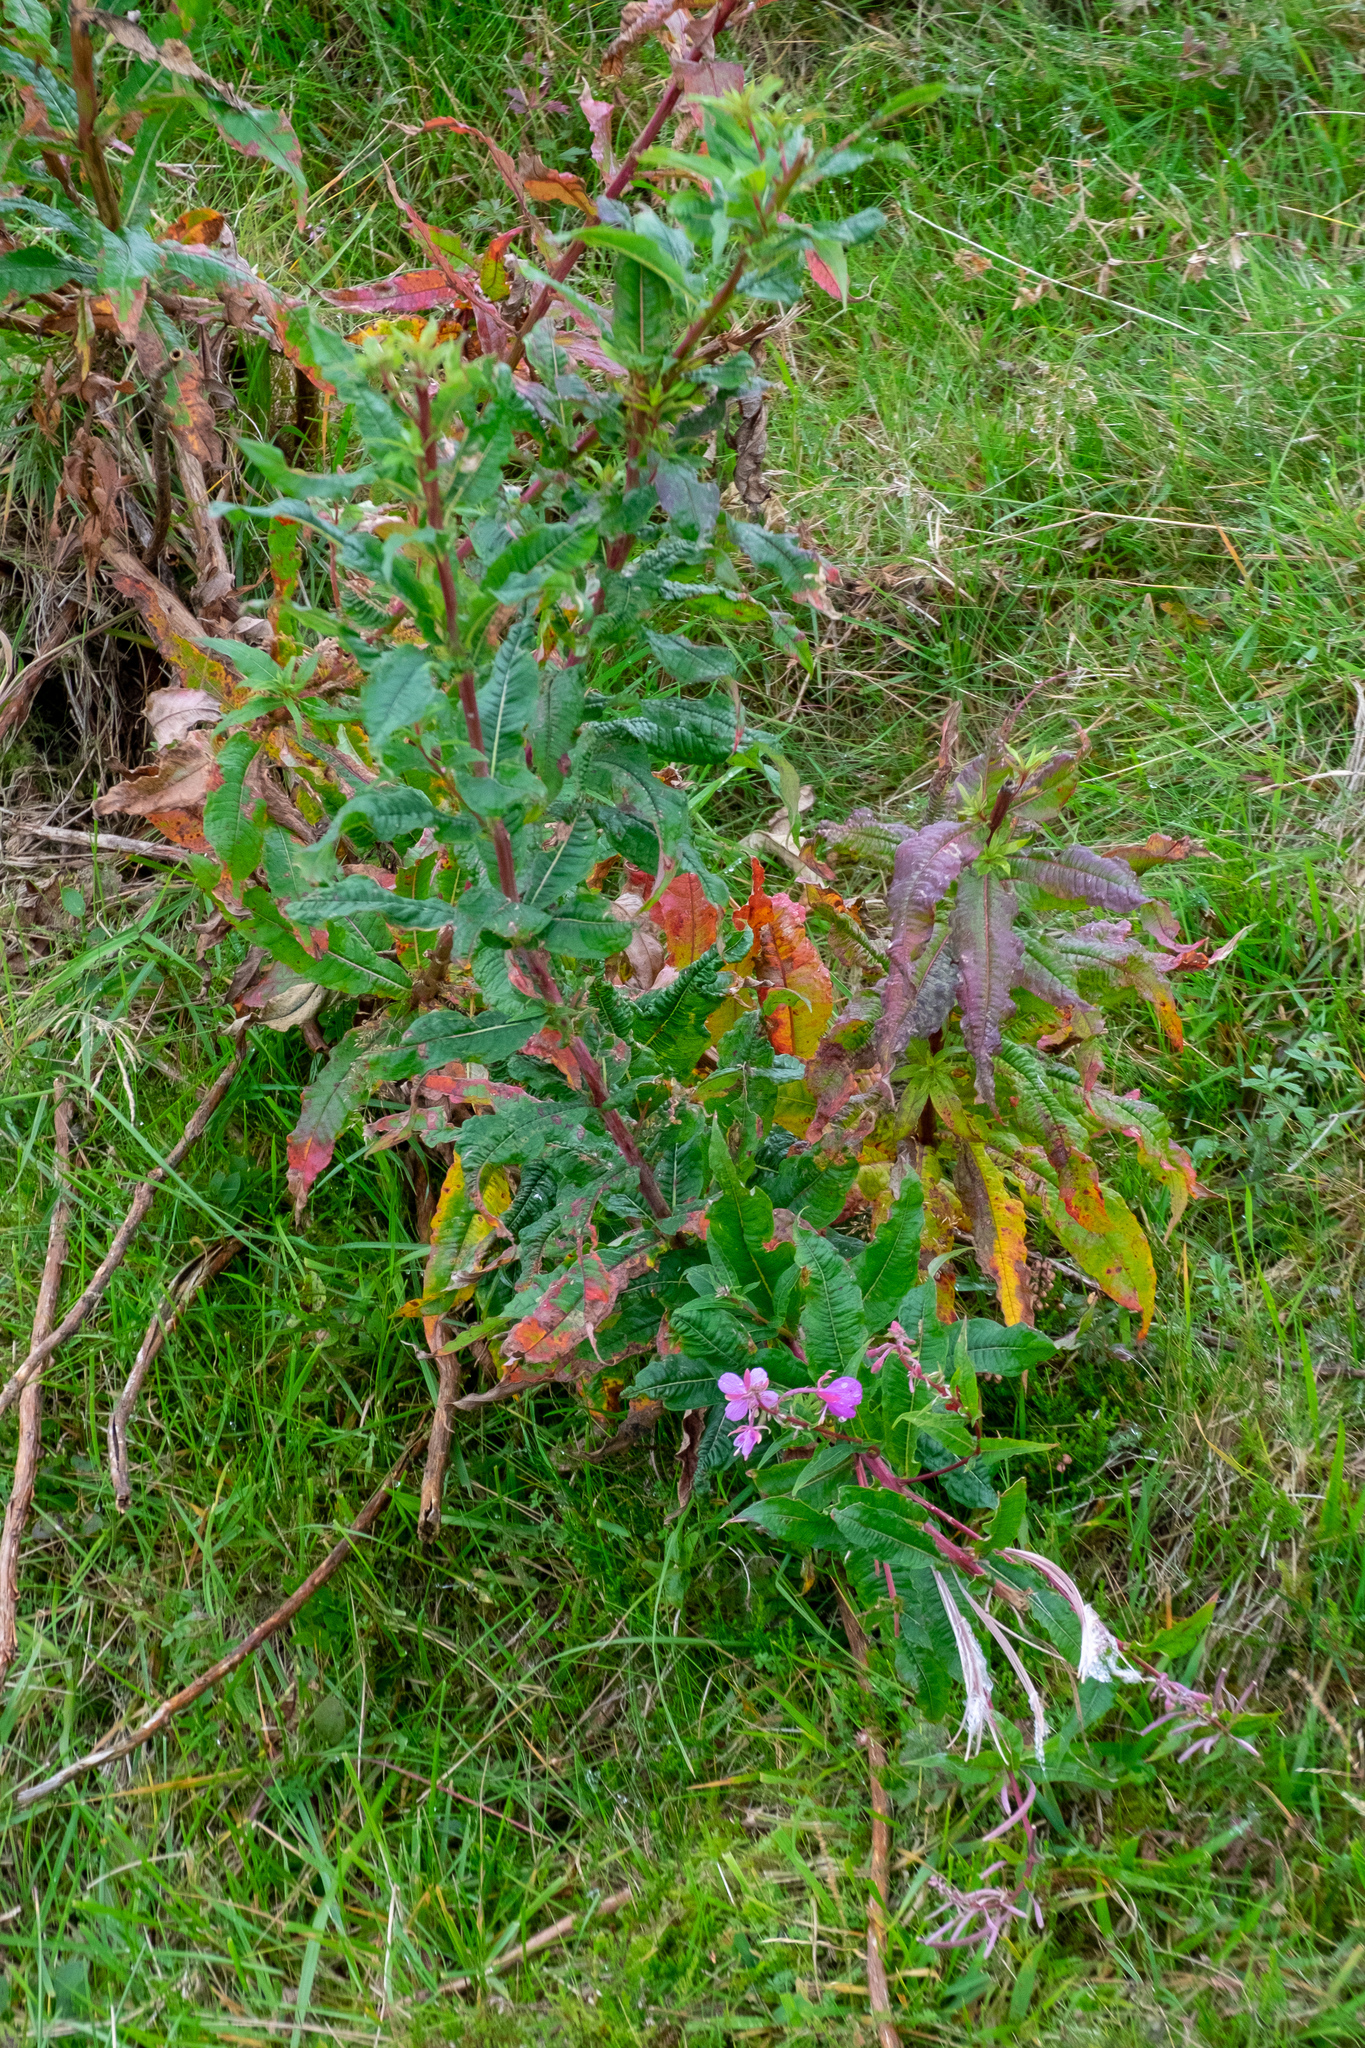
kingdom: Plantae
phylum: Tracheophyta
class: Magnoliopsida
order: Myrtales
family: Onagraceae
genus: Chamaenerion
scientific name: Chamaenerion angustifolium
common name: Fireweed
